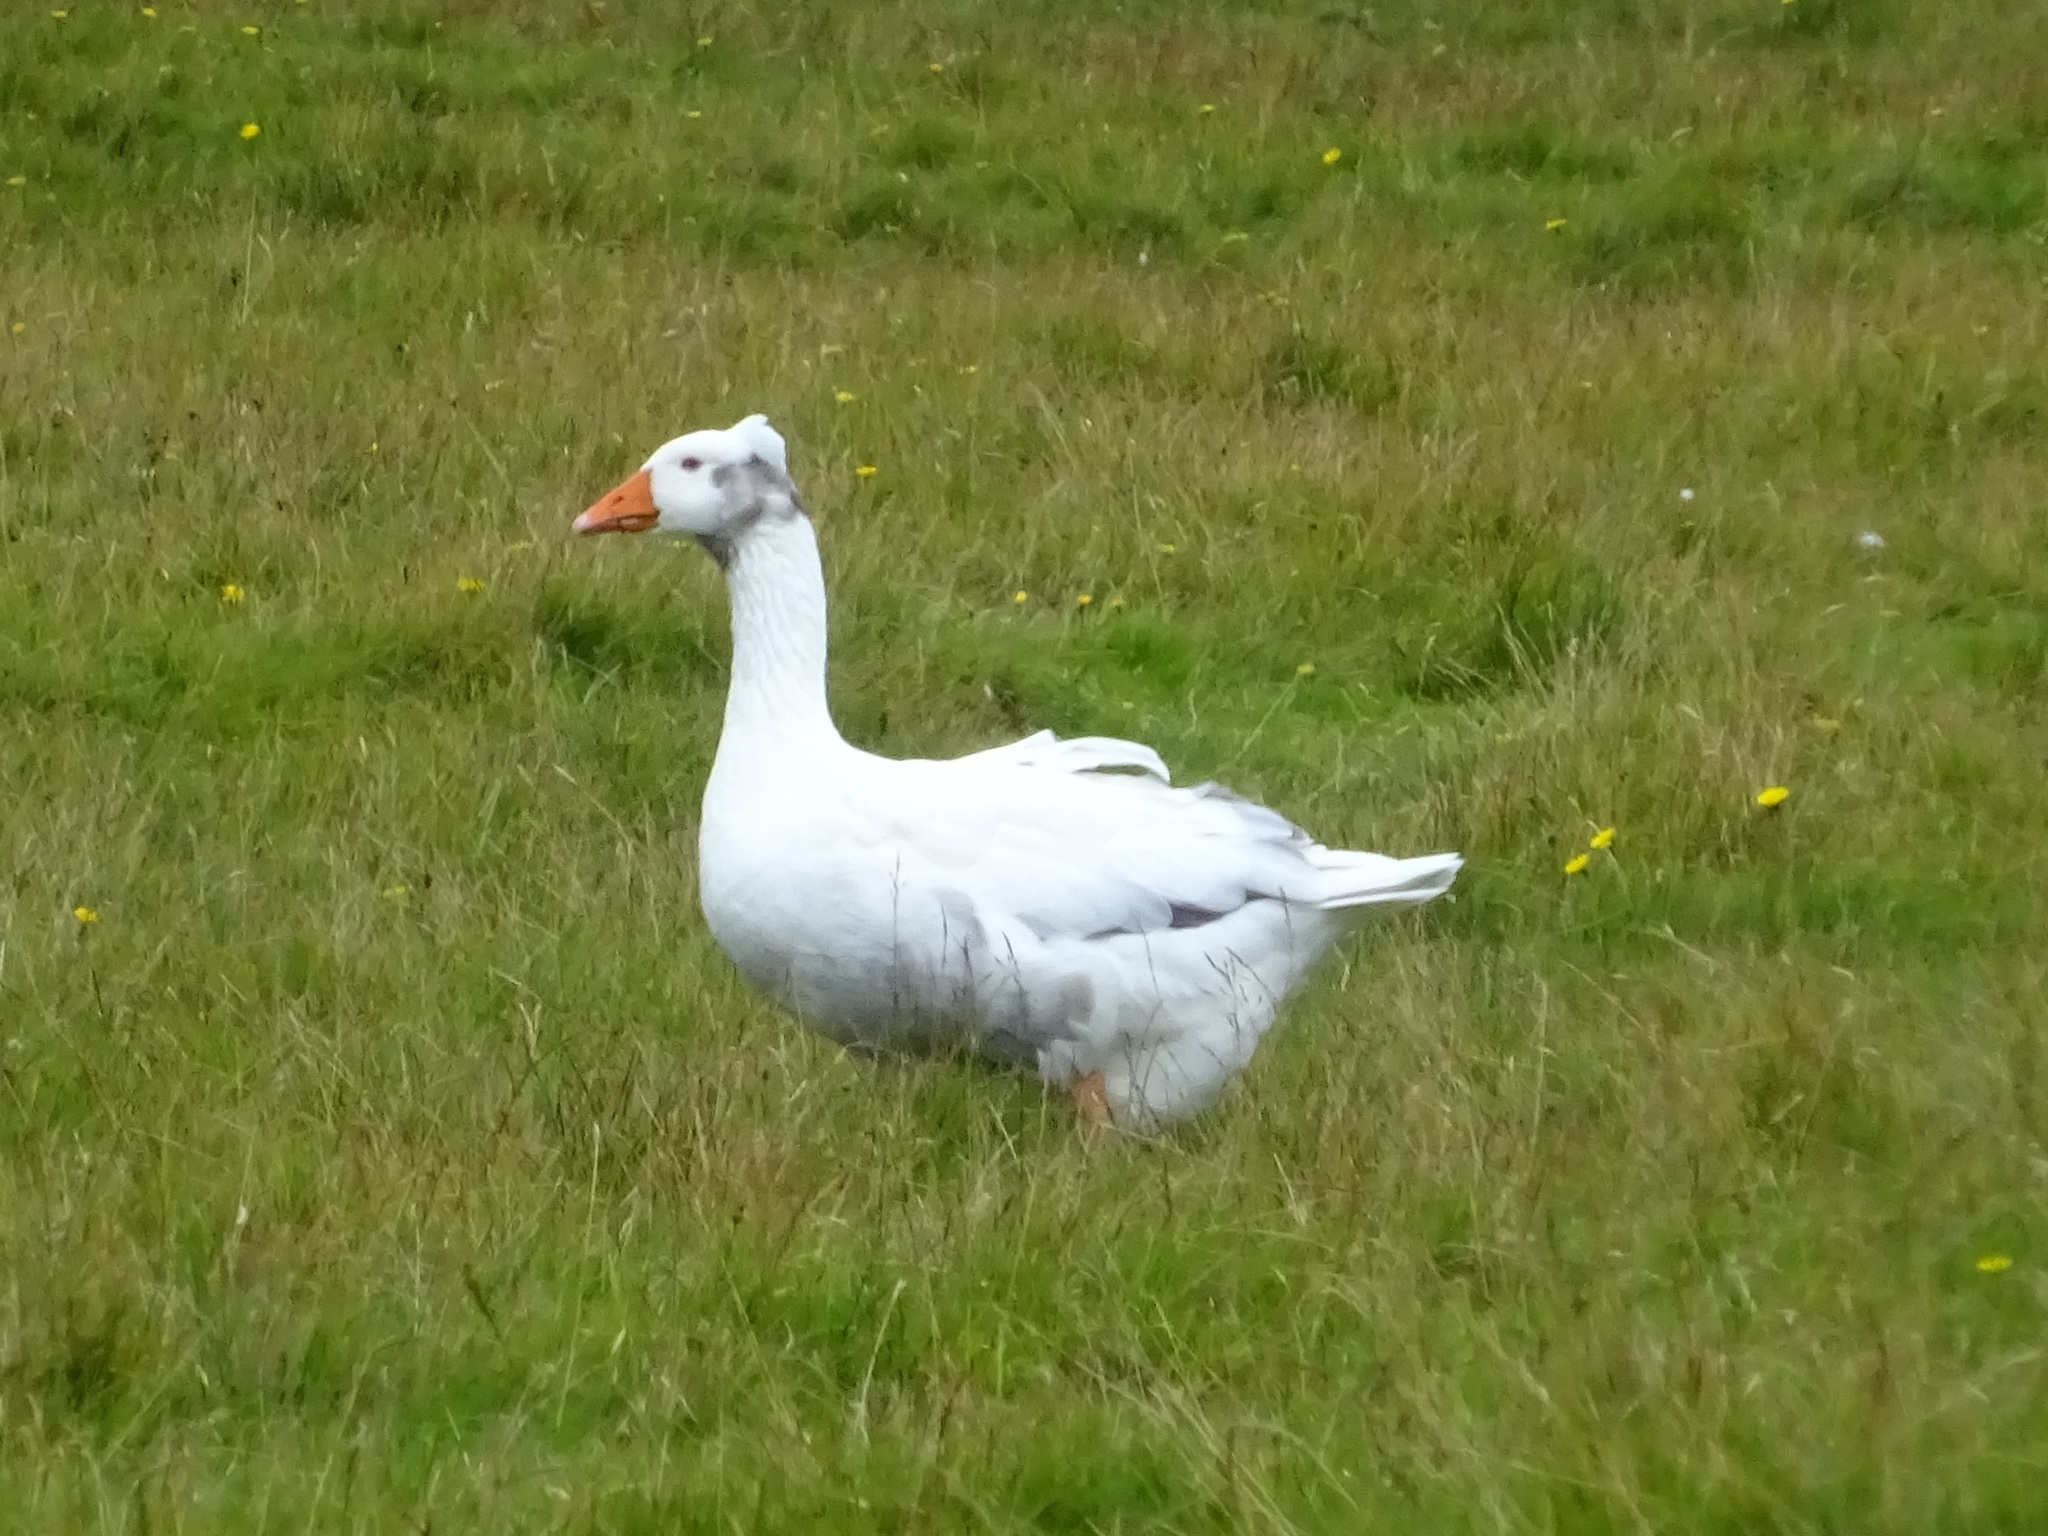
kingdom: Animalia
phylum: Chordata
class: Aves
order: Anseriformes
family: Anatidae
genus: Anser
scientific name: Anser anser
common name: Greylag goose
